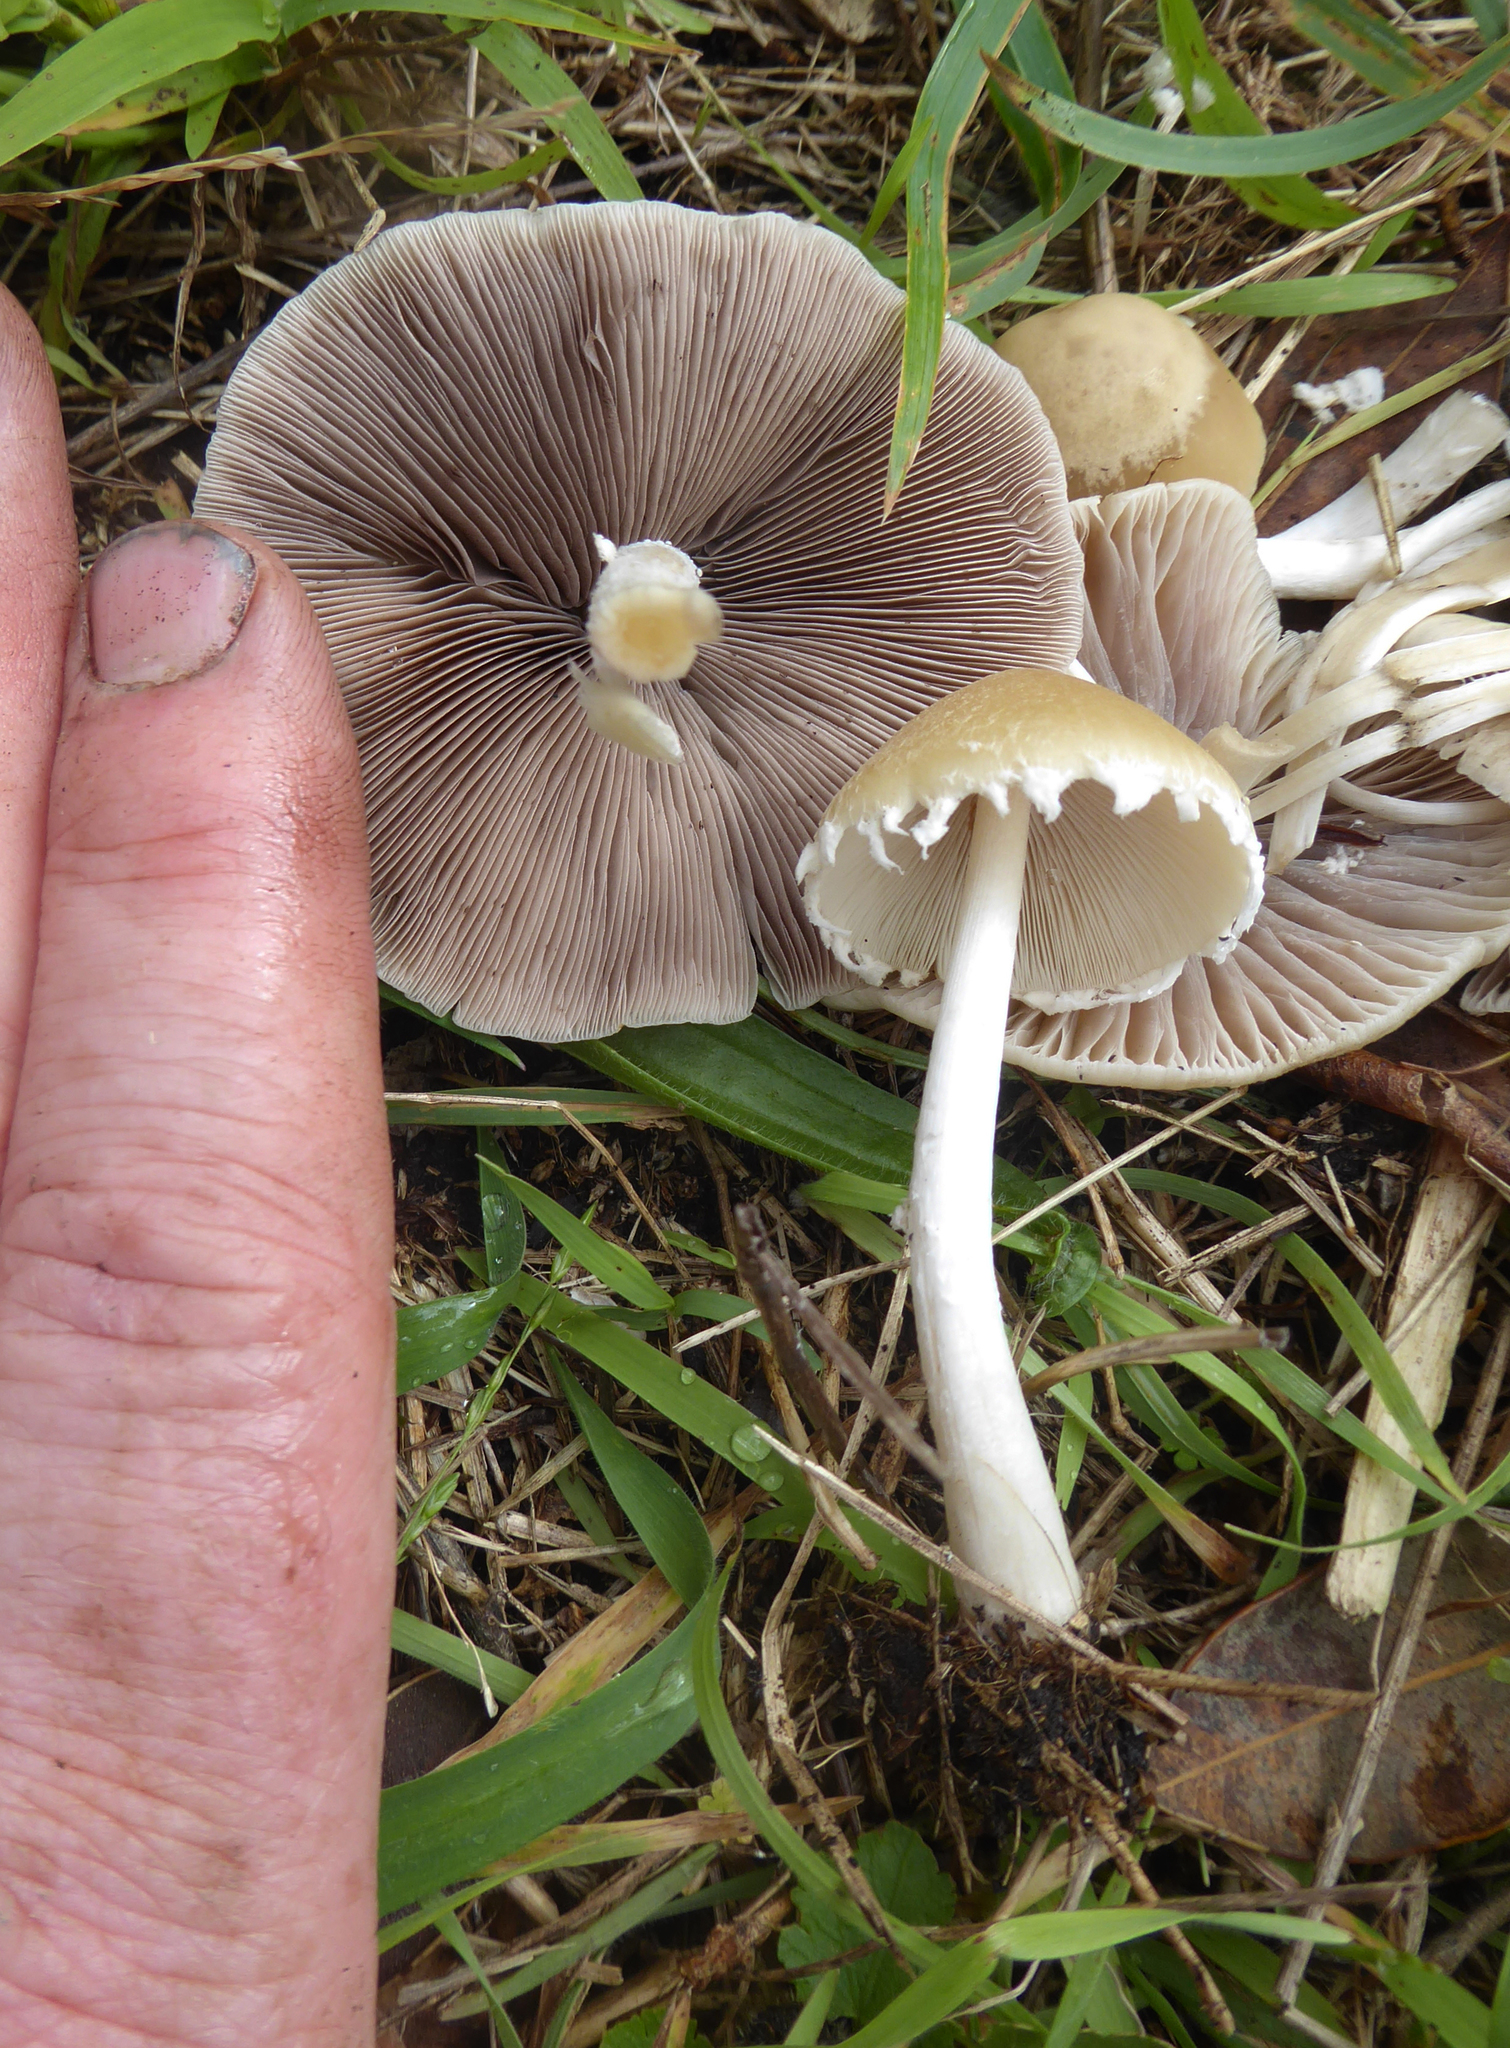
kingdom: Fungi
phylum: Basidiomycota
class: Agaricomycetes
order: Agaricales
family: Psathyrellaceae
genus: Candolleomyces
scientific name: Candolleomyces candolleanus
